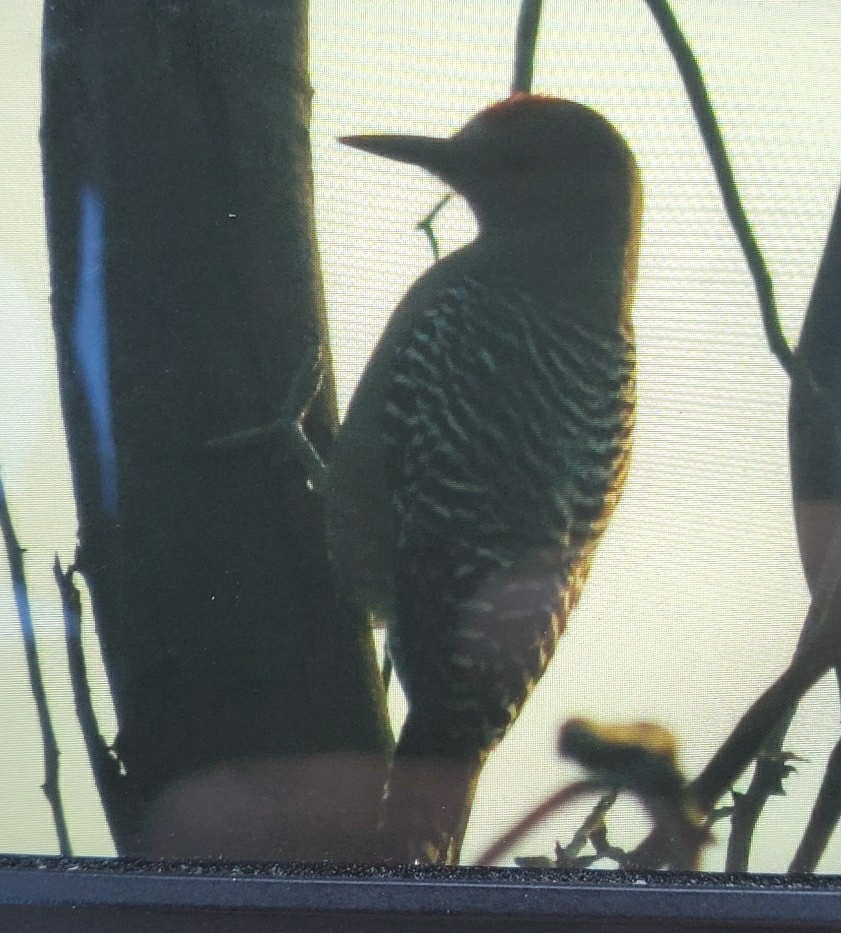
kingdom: Animalia
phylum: Chordata
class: Aves
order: Piciformes
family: Picidae
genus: Melanerpes
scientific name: Melanerpes uropygialis
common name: Gila woodpecker
